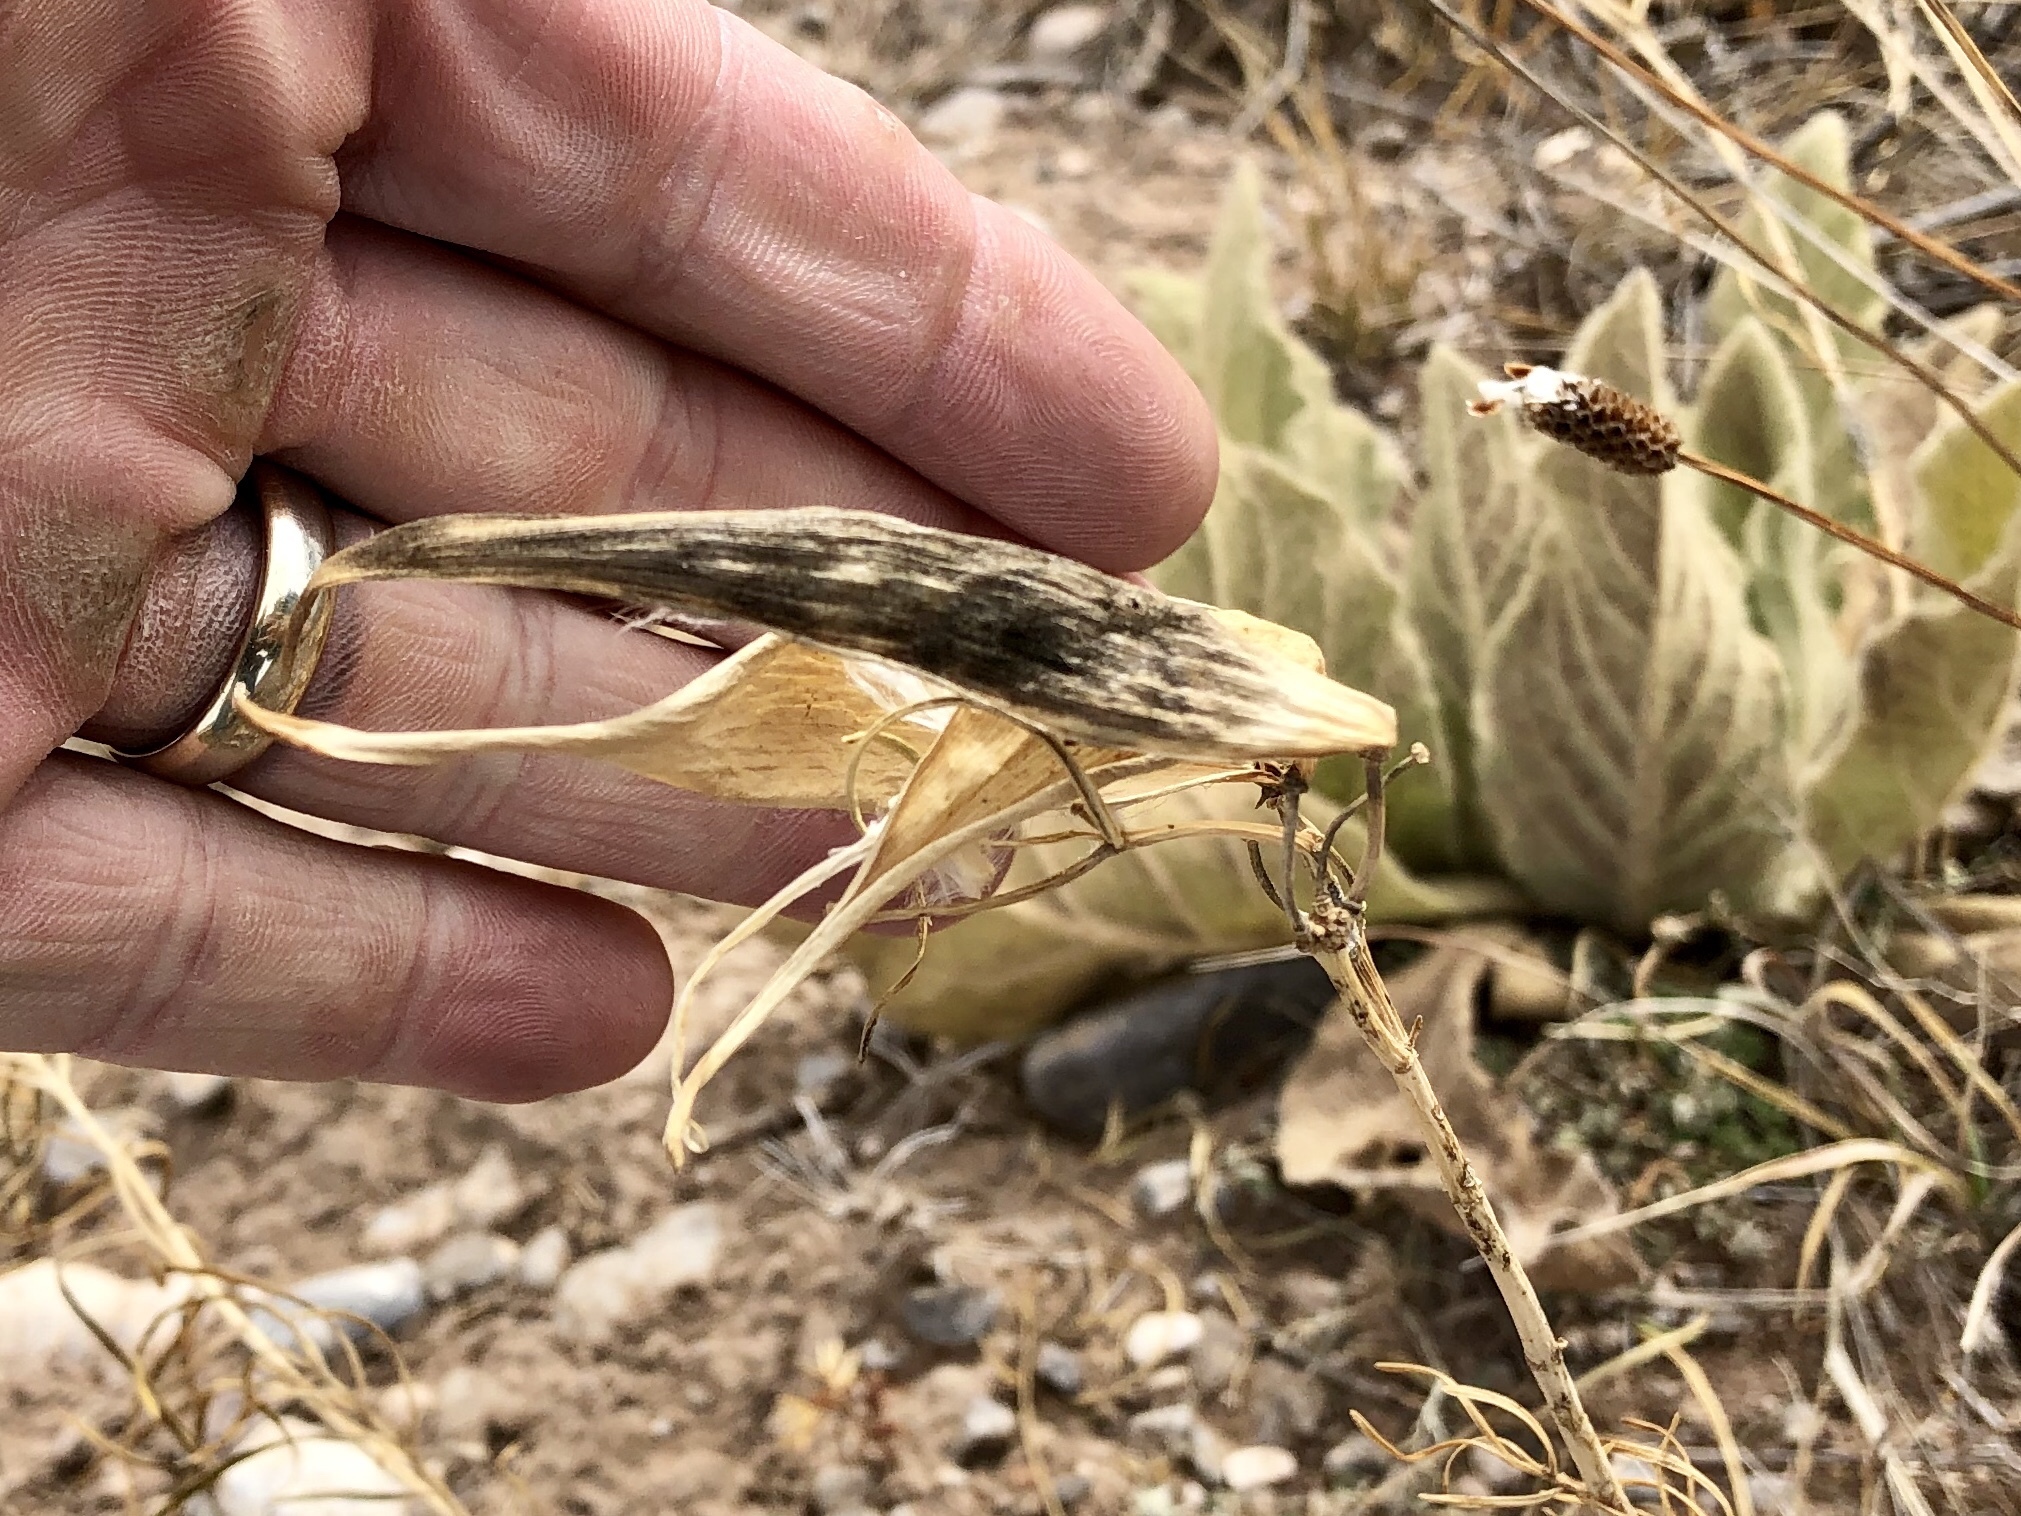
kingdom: Plantae
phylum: Tracheophyta
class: Magnoliopsida
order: Gentianales
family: Apocynaceae
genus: Asclepias
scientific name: Asclepias subverticillata
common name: Horsetail milkweed
